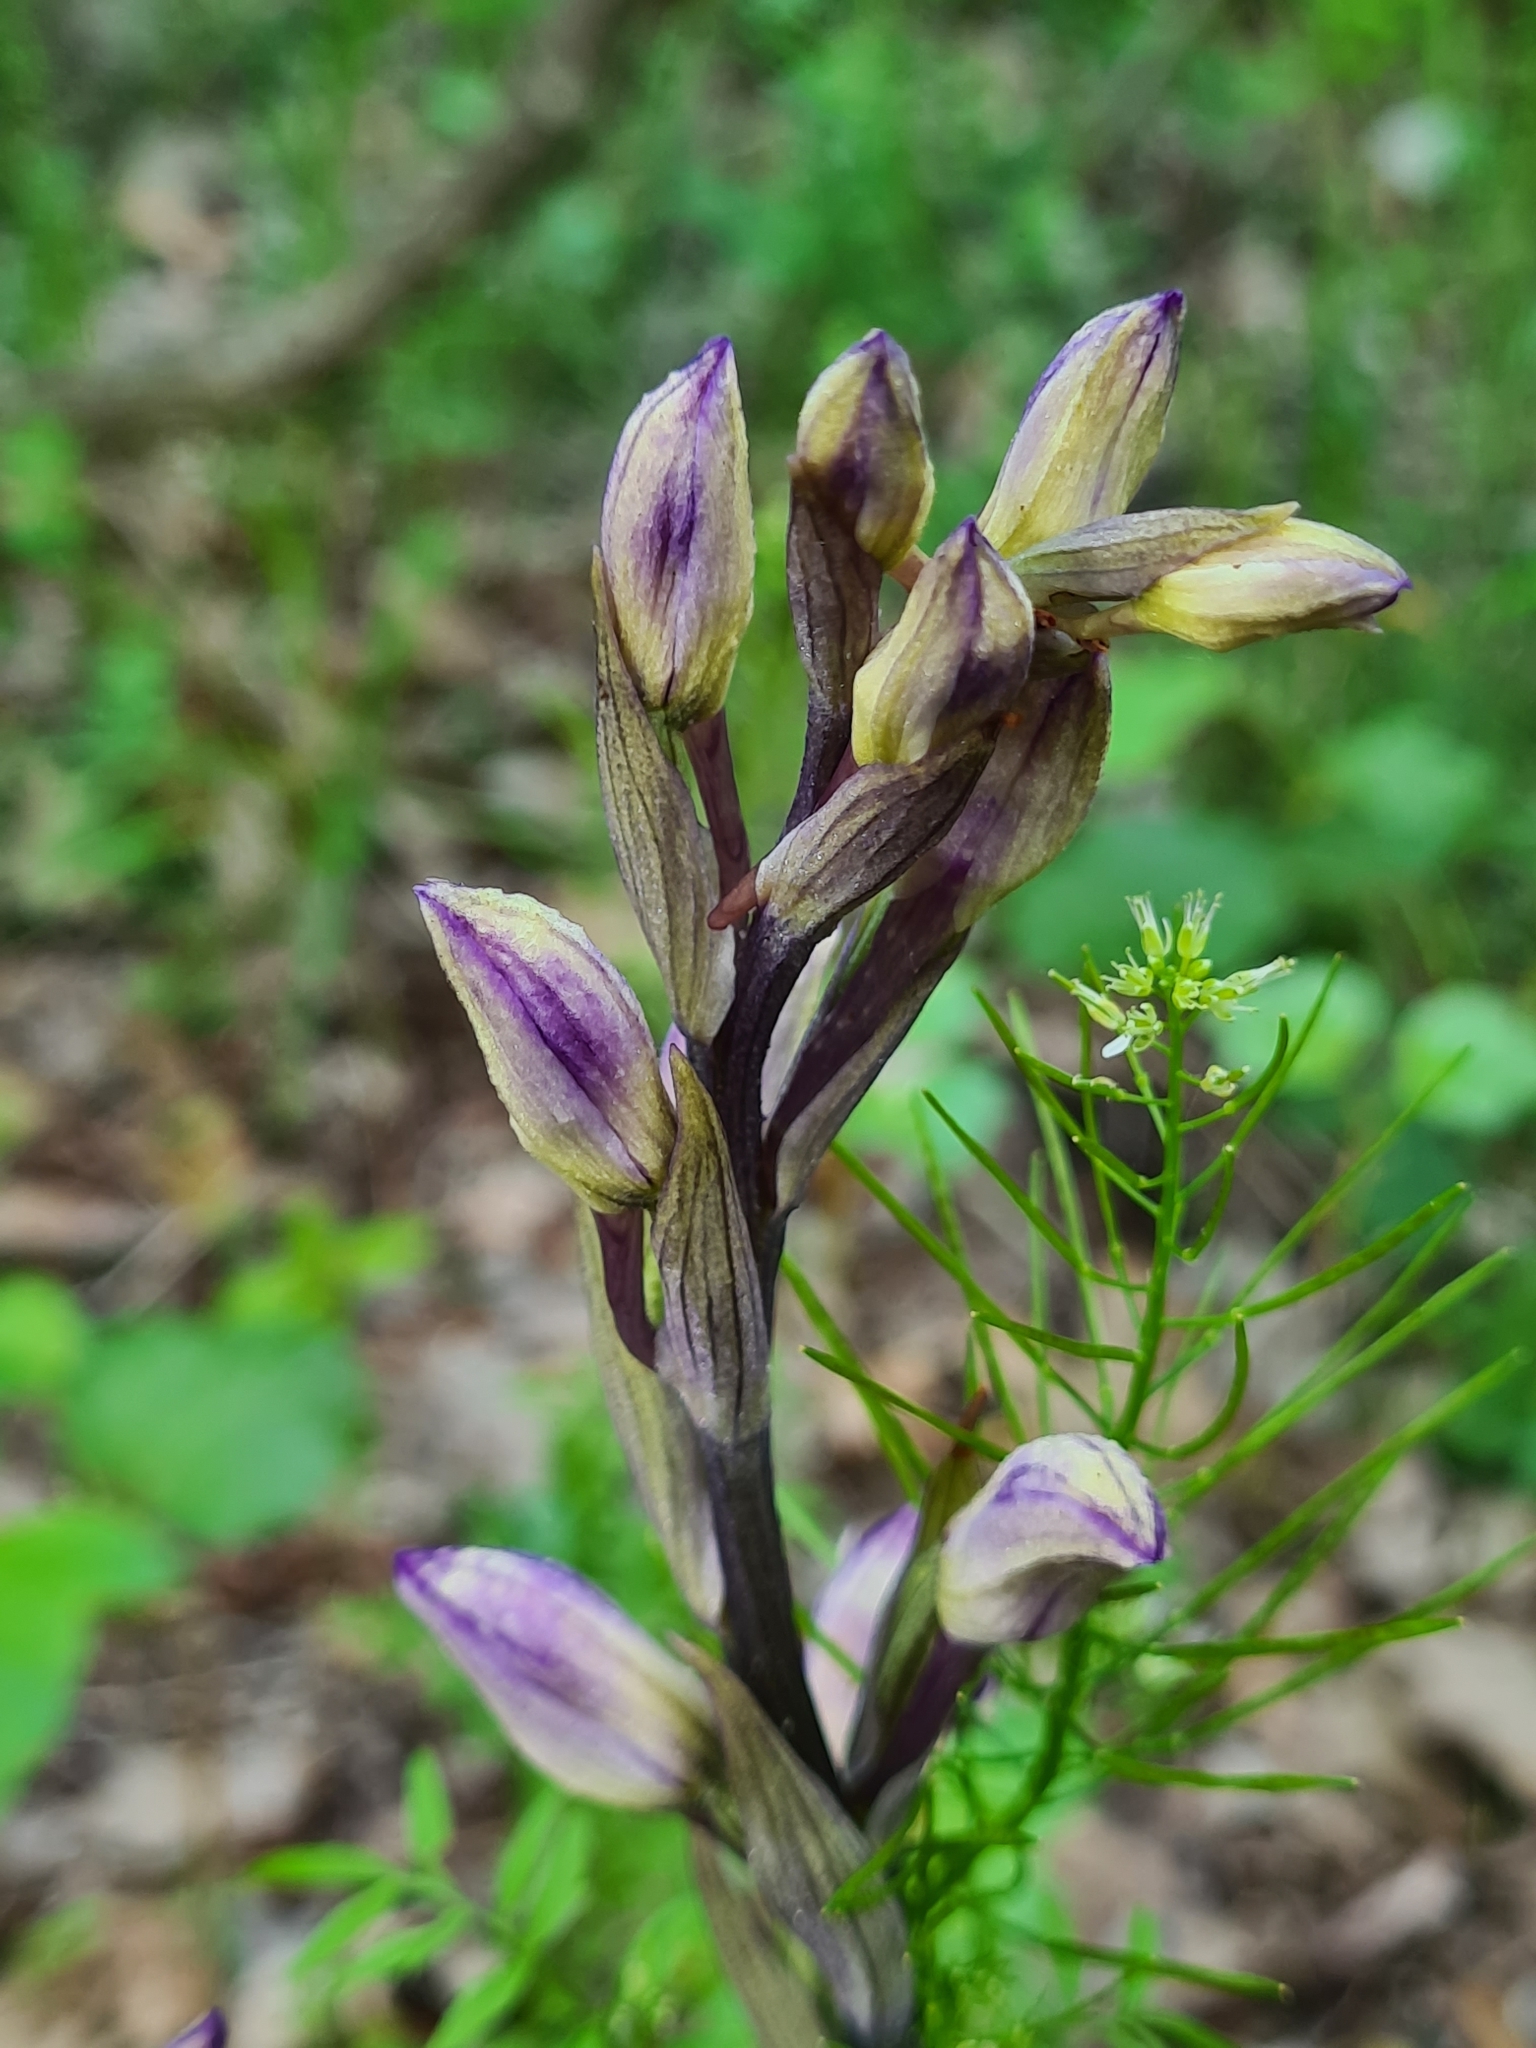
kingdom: Plantae
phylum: Tracheophyta
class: Liliopsida
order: Asparagales
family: Orchidaceae
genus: Limodorum
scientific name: Limodorum abortivum
